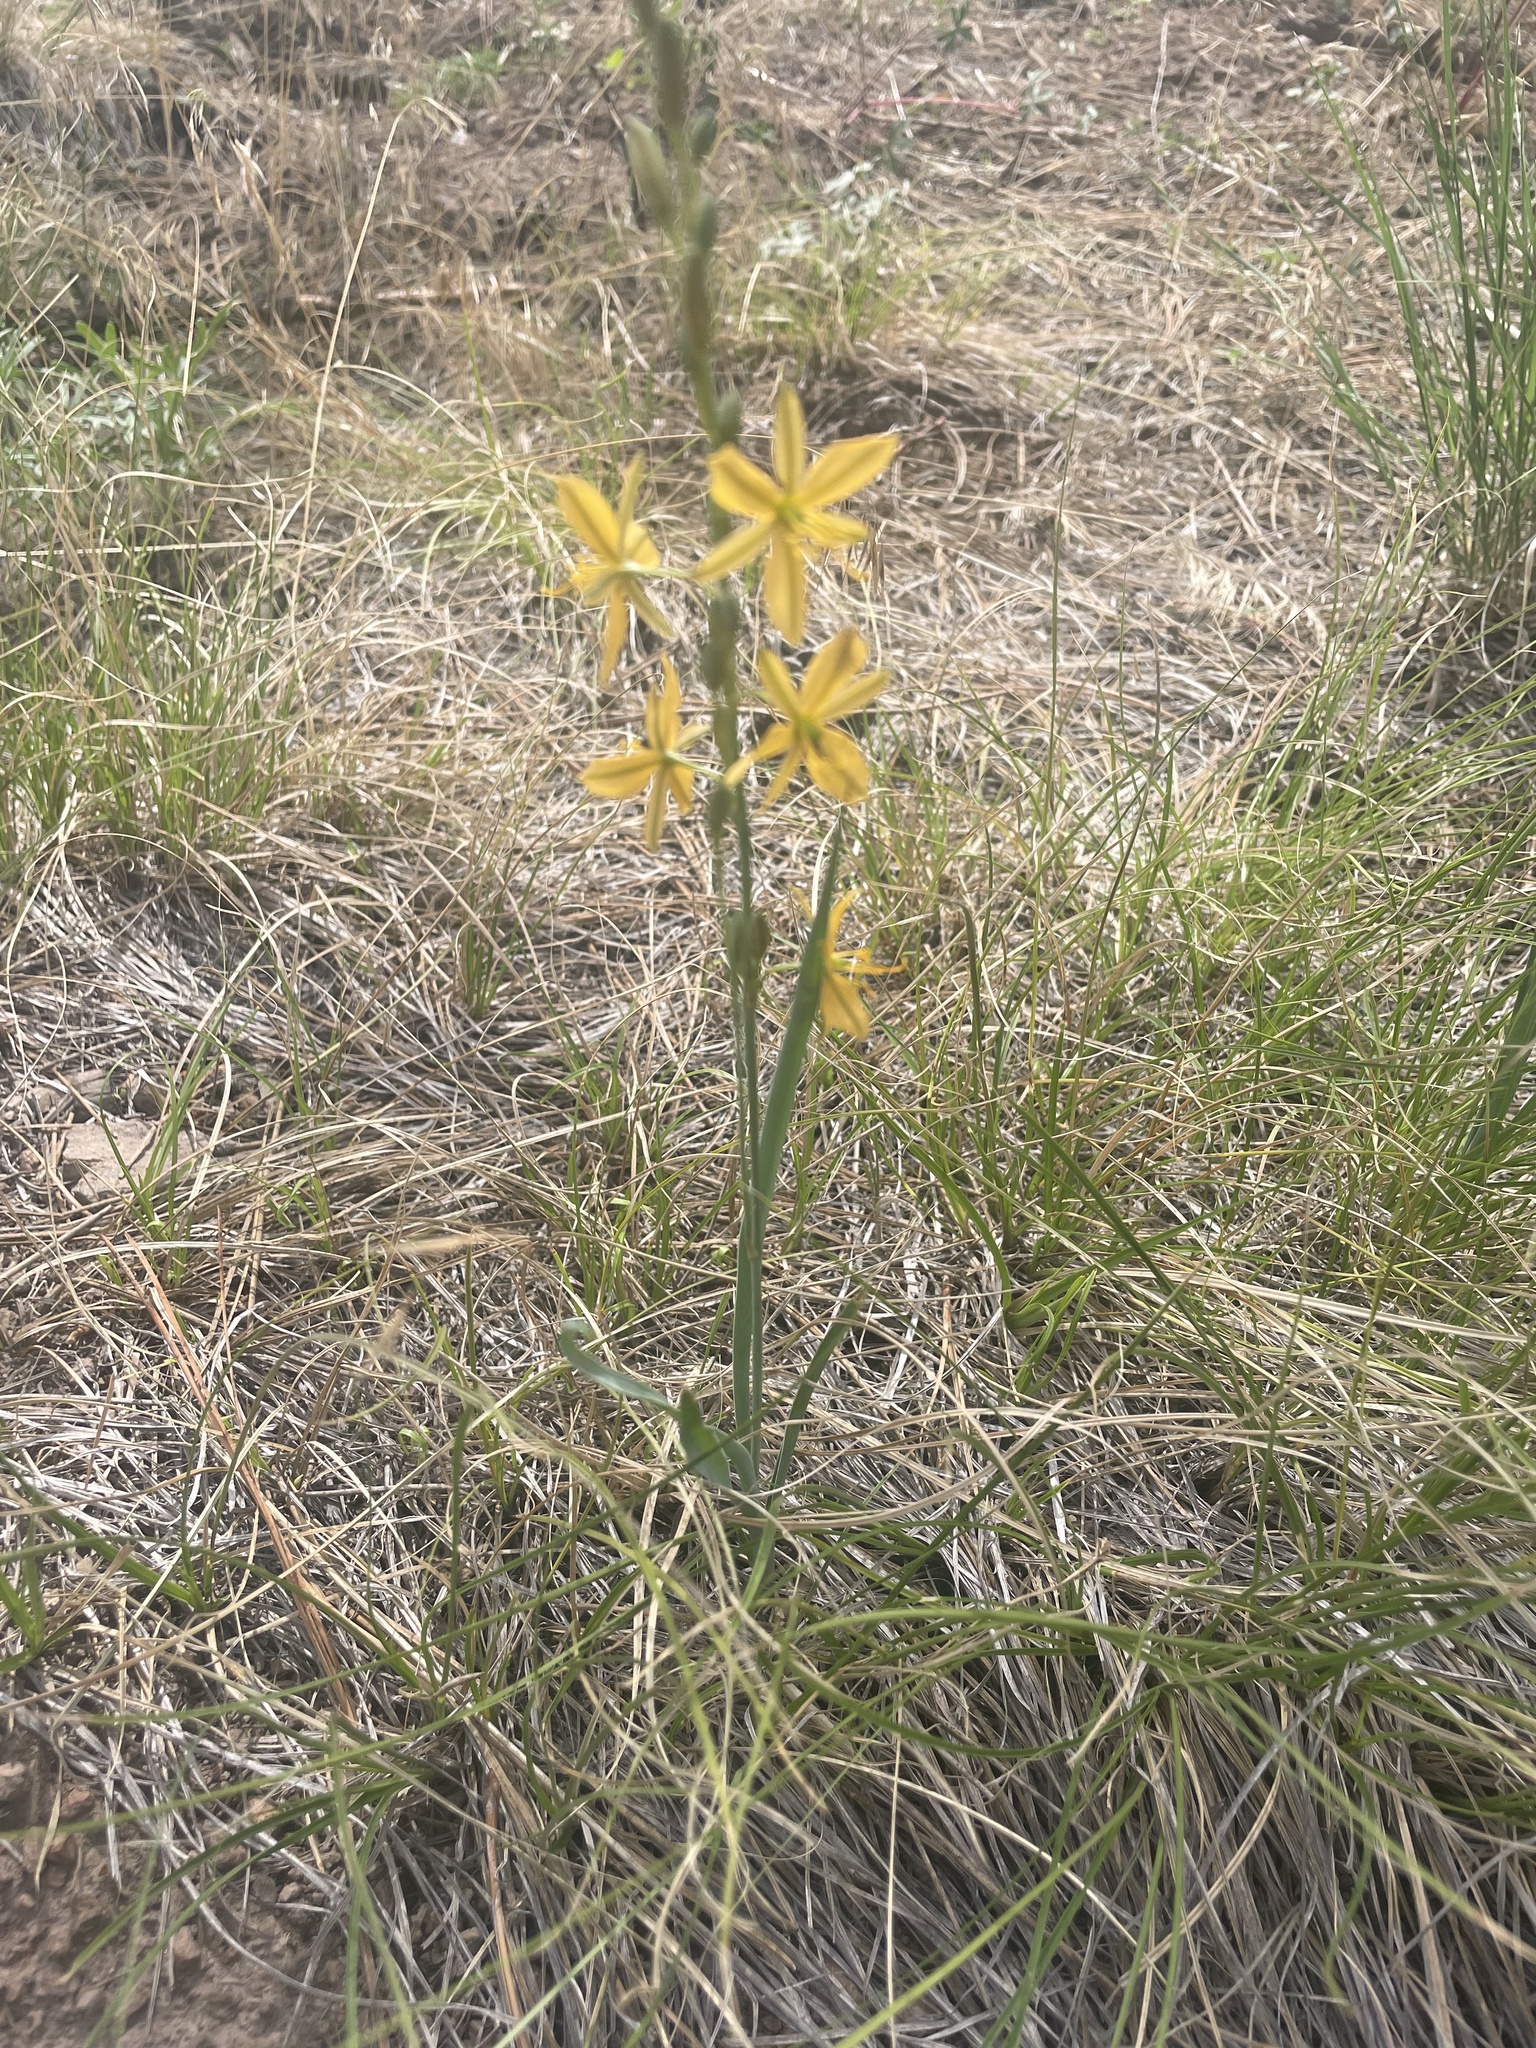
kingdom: Plantae
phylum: Tracheophyta
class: Liliopsida
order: Asparagales
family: Asparagaceae
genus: Echeandia
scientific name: Echeandia flavescens
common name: Amberlily
